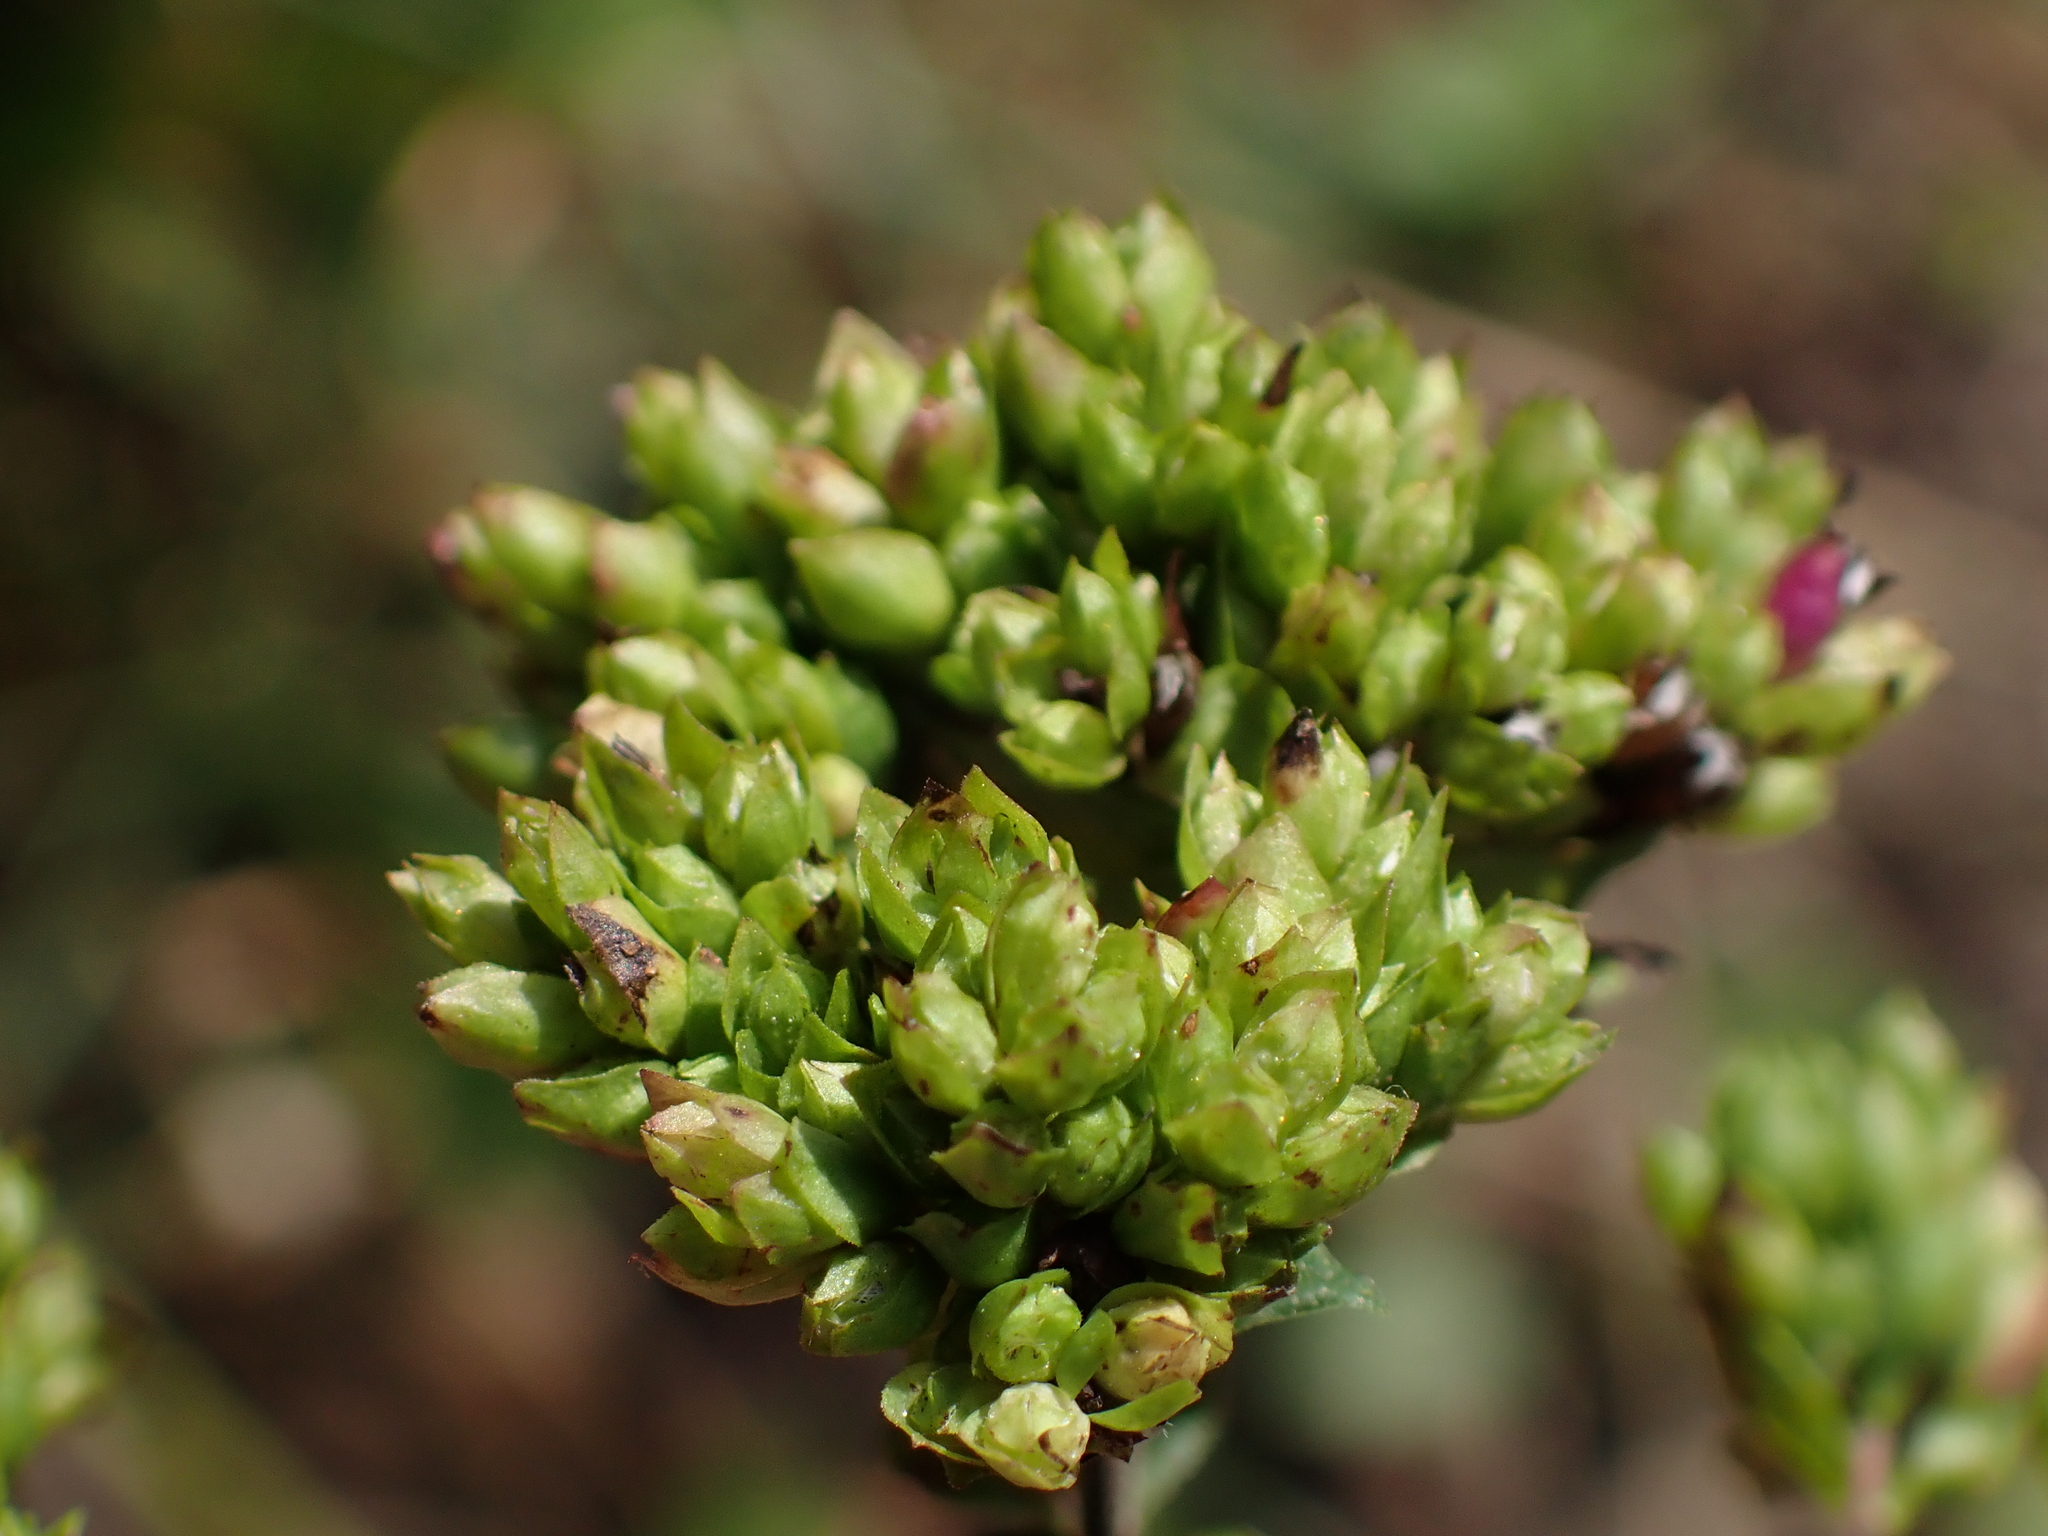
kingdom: Plantae
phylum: Tracheophyta
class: Magnoliopsida
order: Lamiales
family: Lamiaceae
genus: Origanum
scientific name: Origanum vulgare
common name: Wild marjoram
